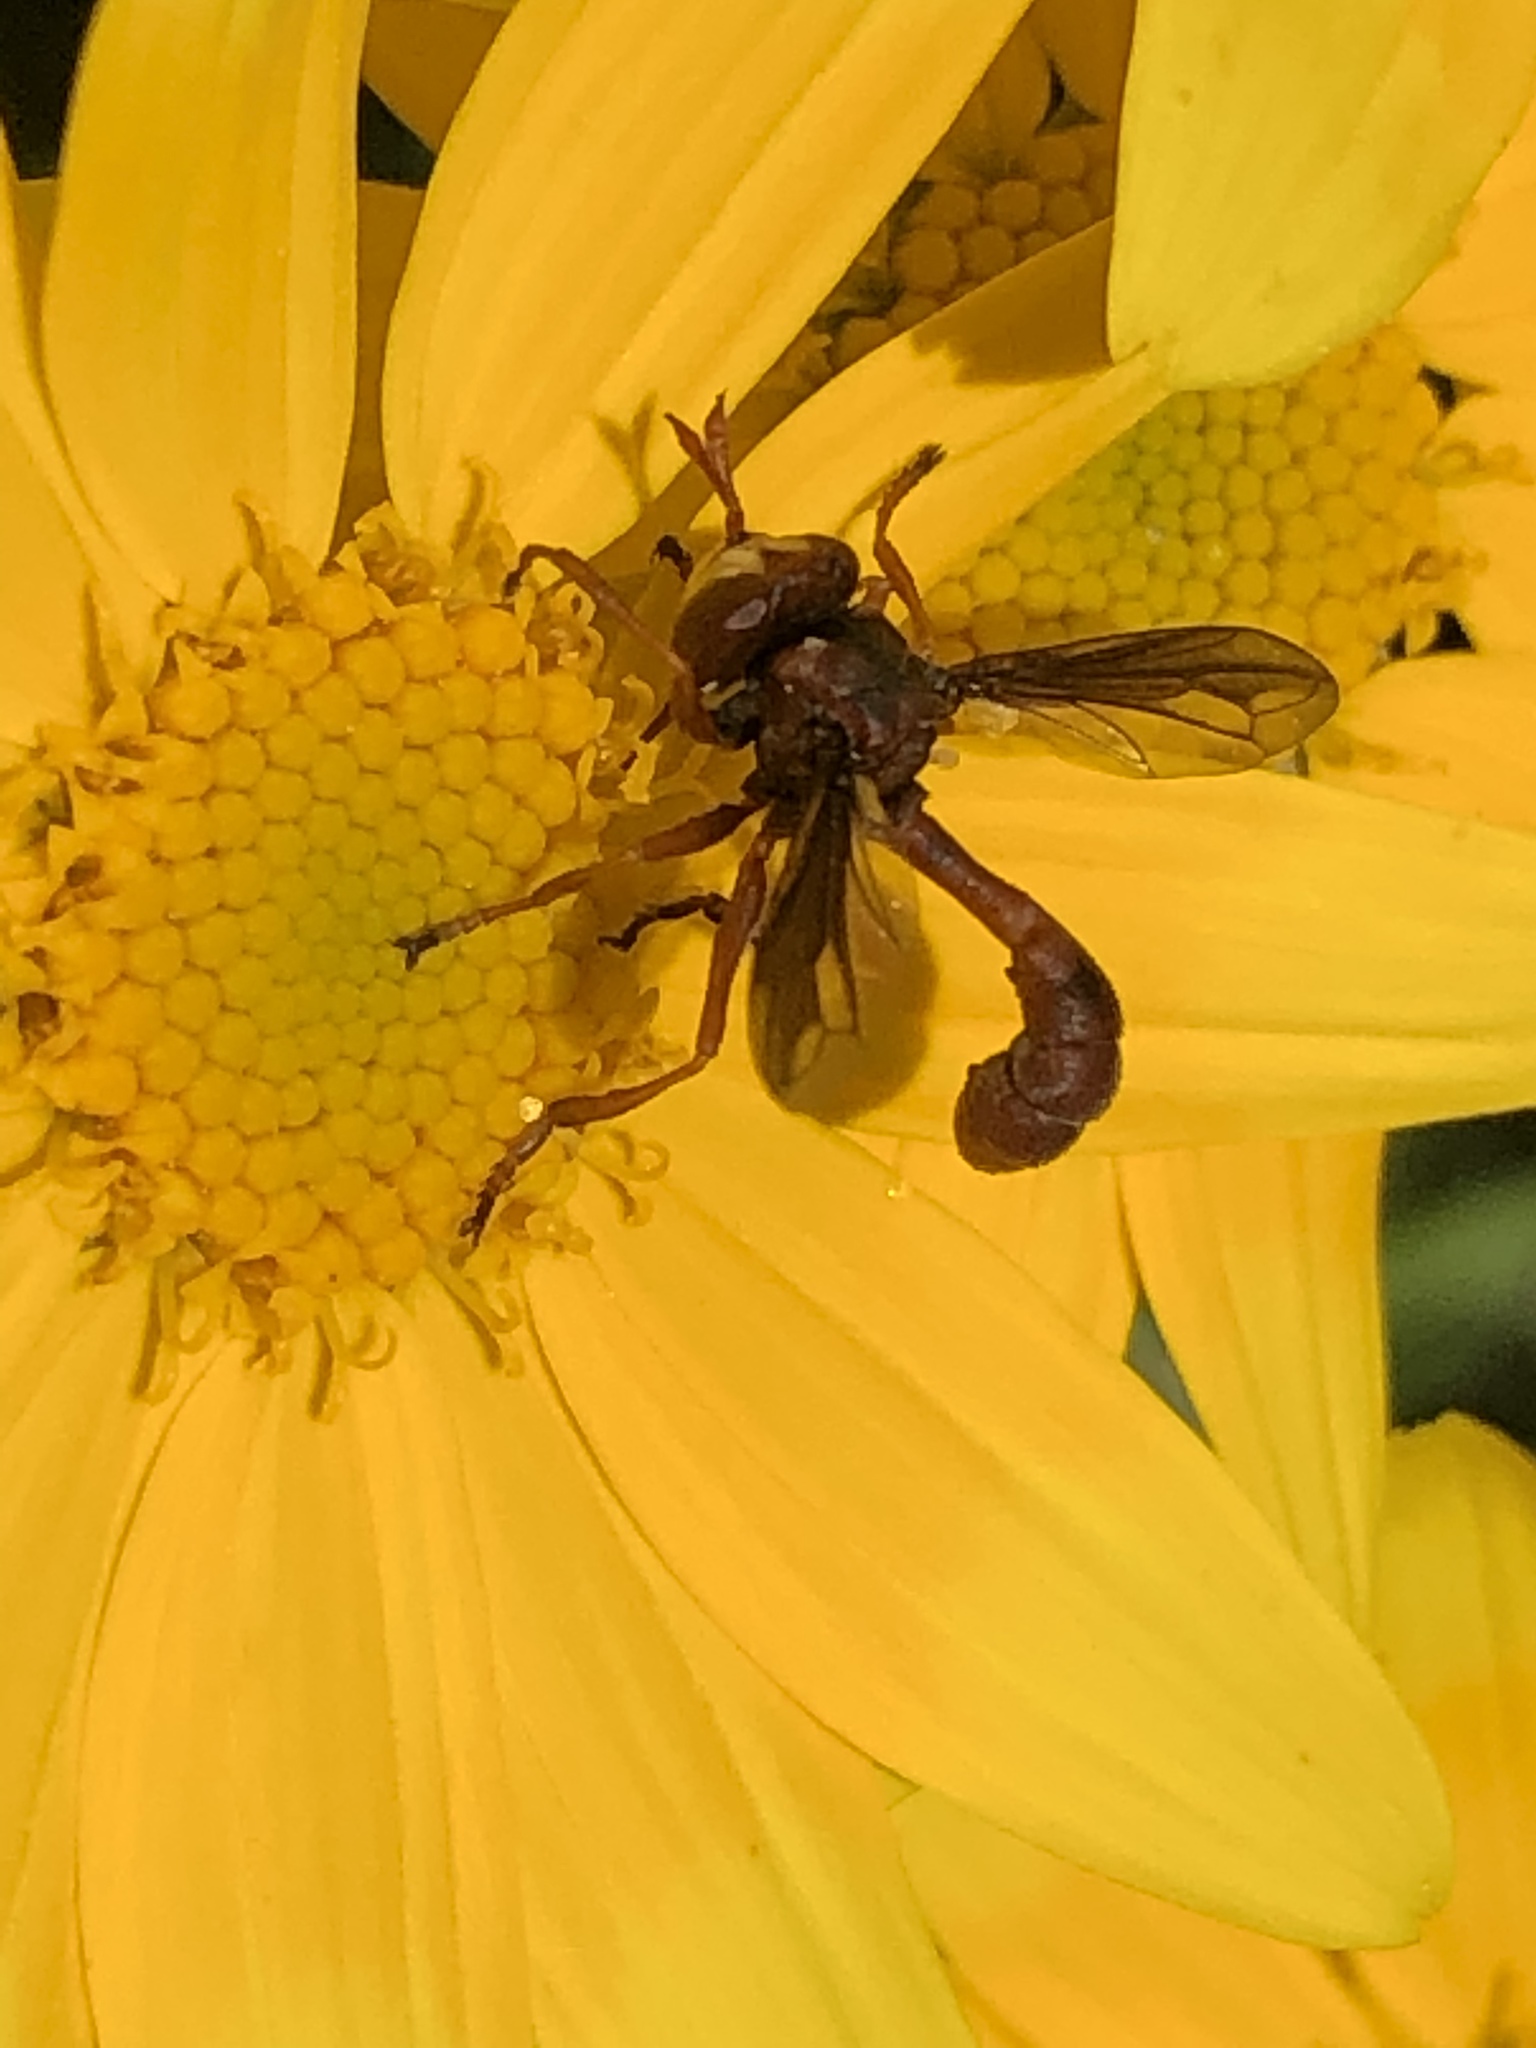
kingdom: Animalia
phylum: Arthropoda
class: Insecta
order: Diptera
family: Conopidae
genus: Physocephala
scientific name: Physocephala burgessi
